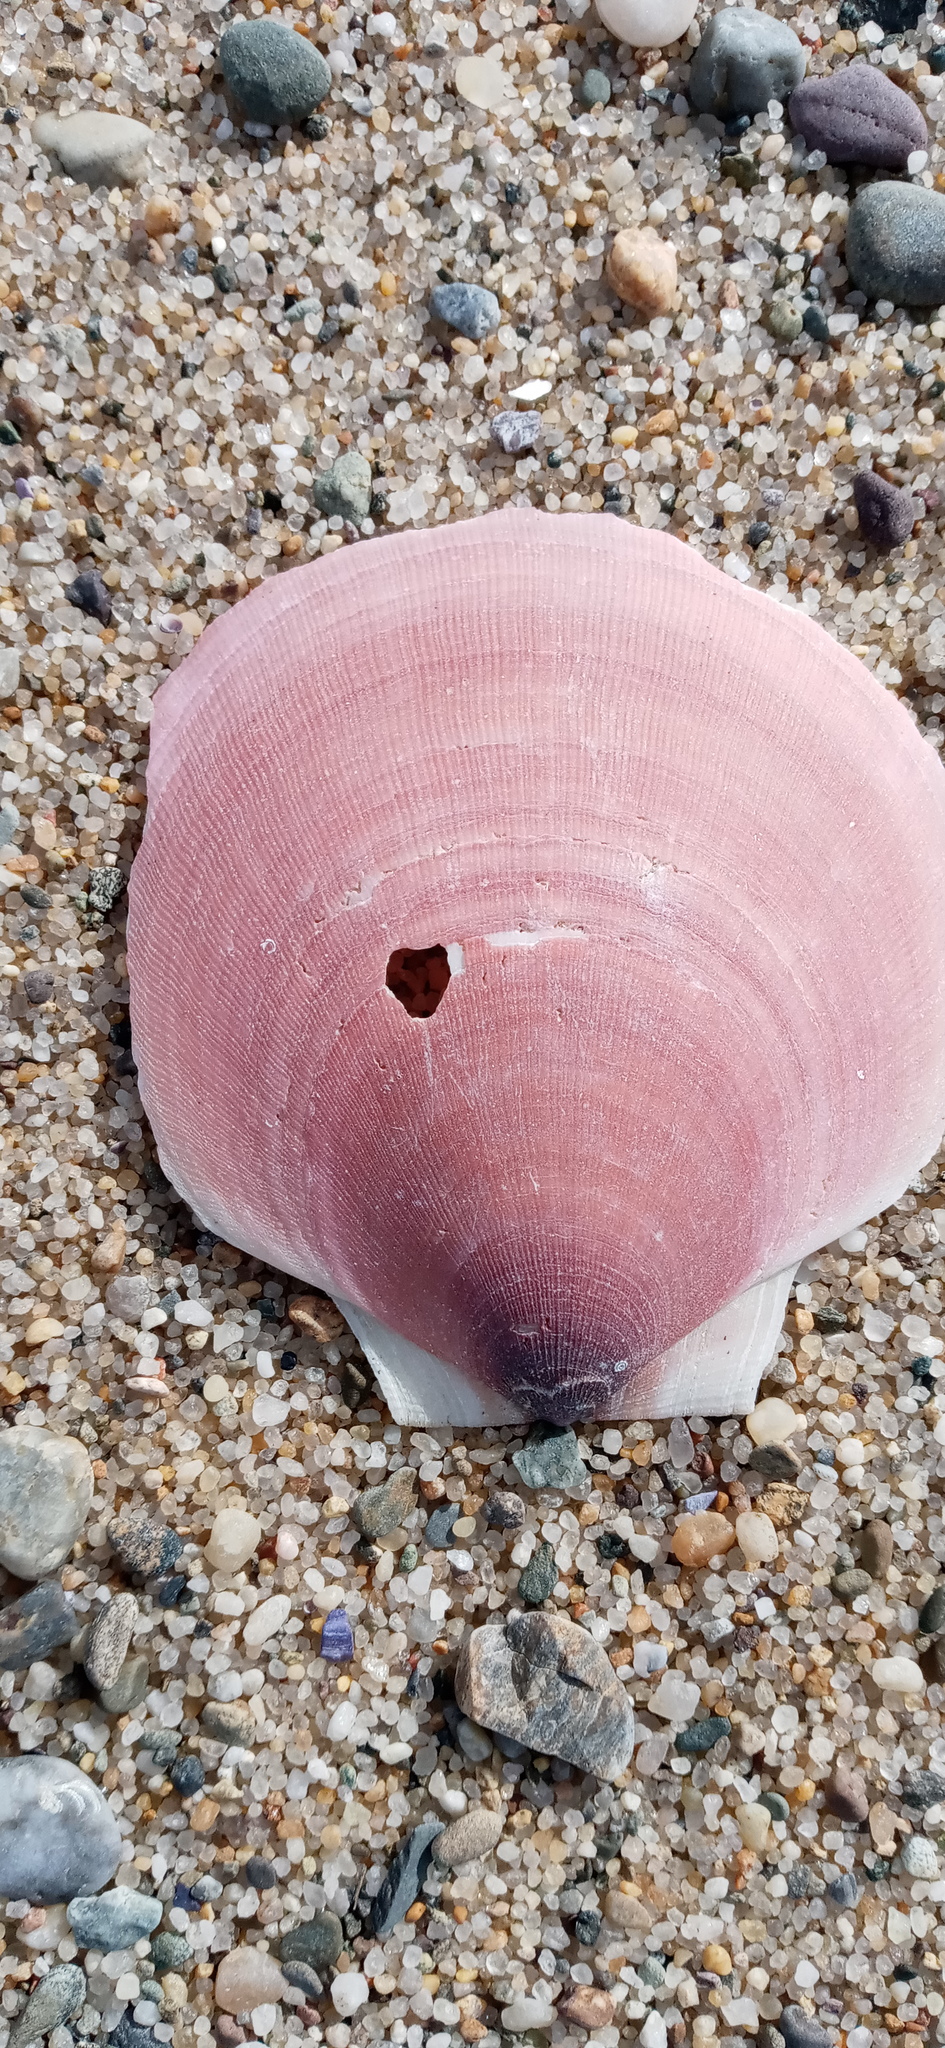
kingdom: Animalia
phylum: Mollusca
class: Bivalvia
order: Pectinida
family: Pectinidae
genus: Placopecten
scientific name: Placopecten magellanicus
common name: American sea scallop
